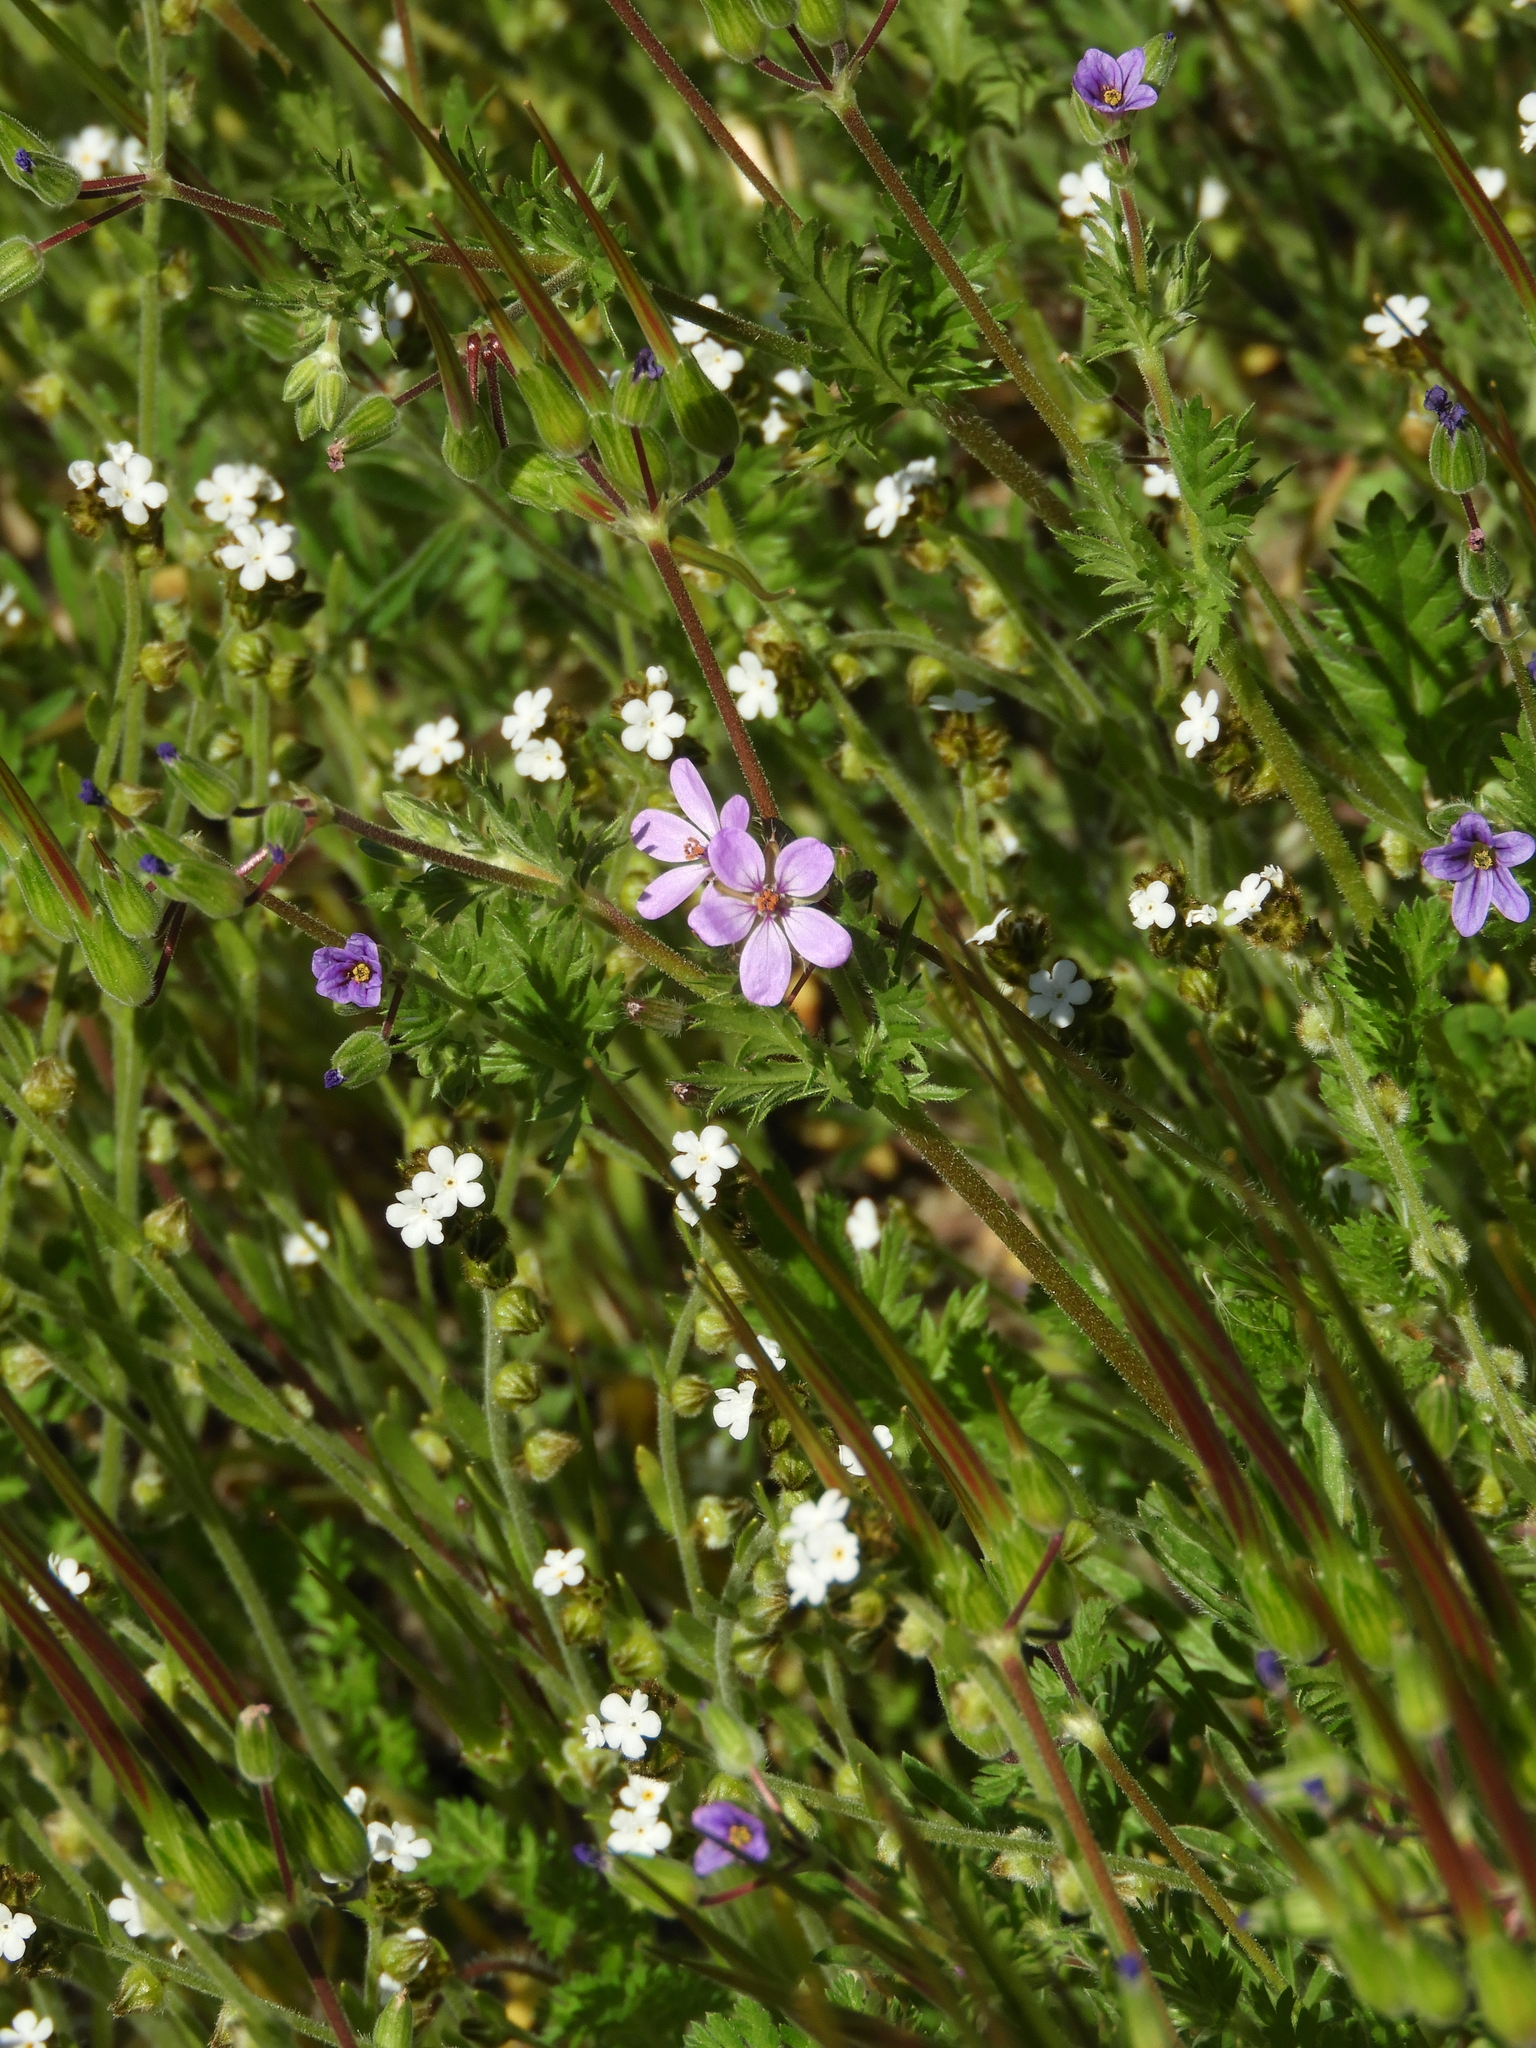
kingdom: Plantae
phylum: Tracheophyta
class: Magnoliopsida
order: Geraniales
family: Geraniaceae
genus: Erodium
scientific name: Erodium cicutarium
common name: Common stork's-bill
